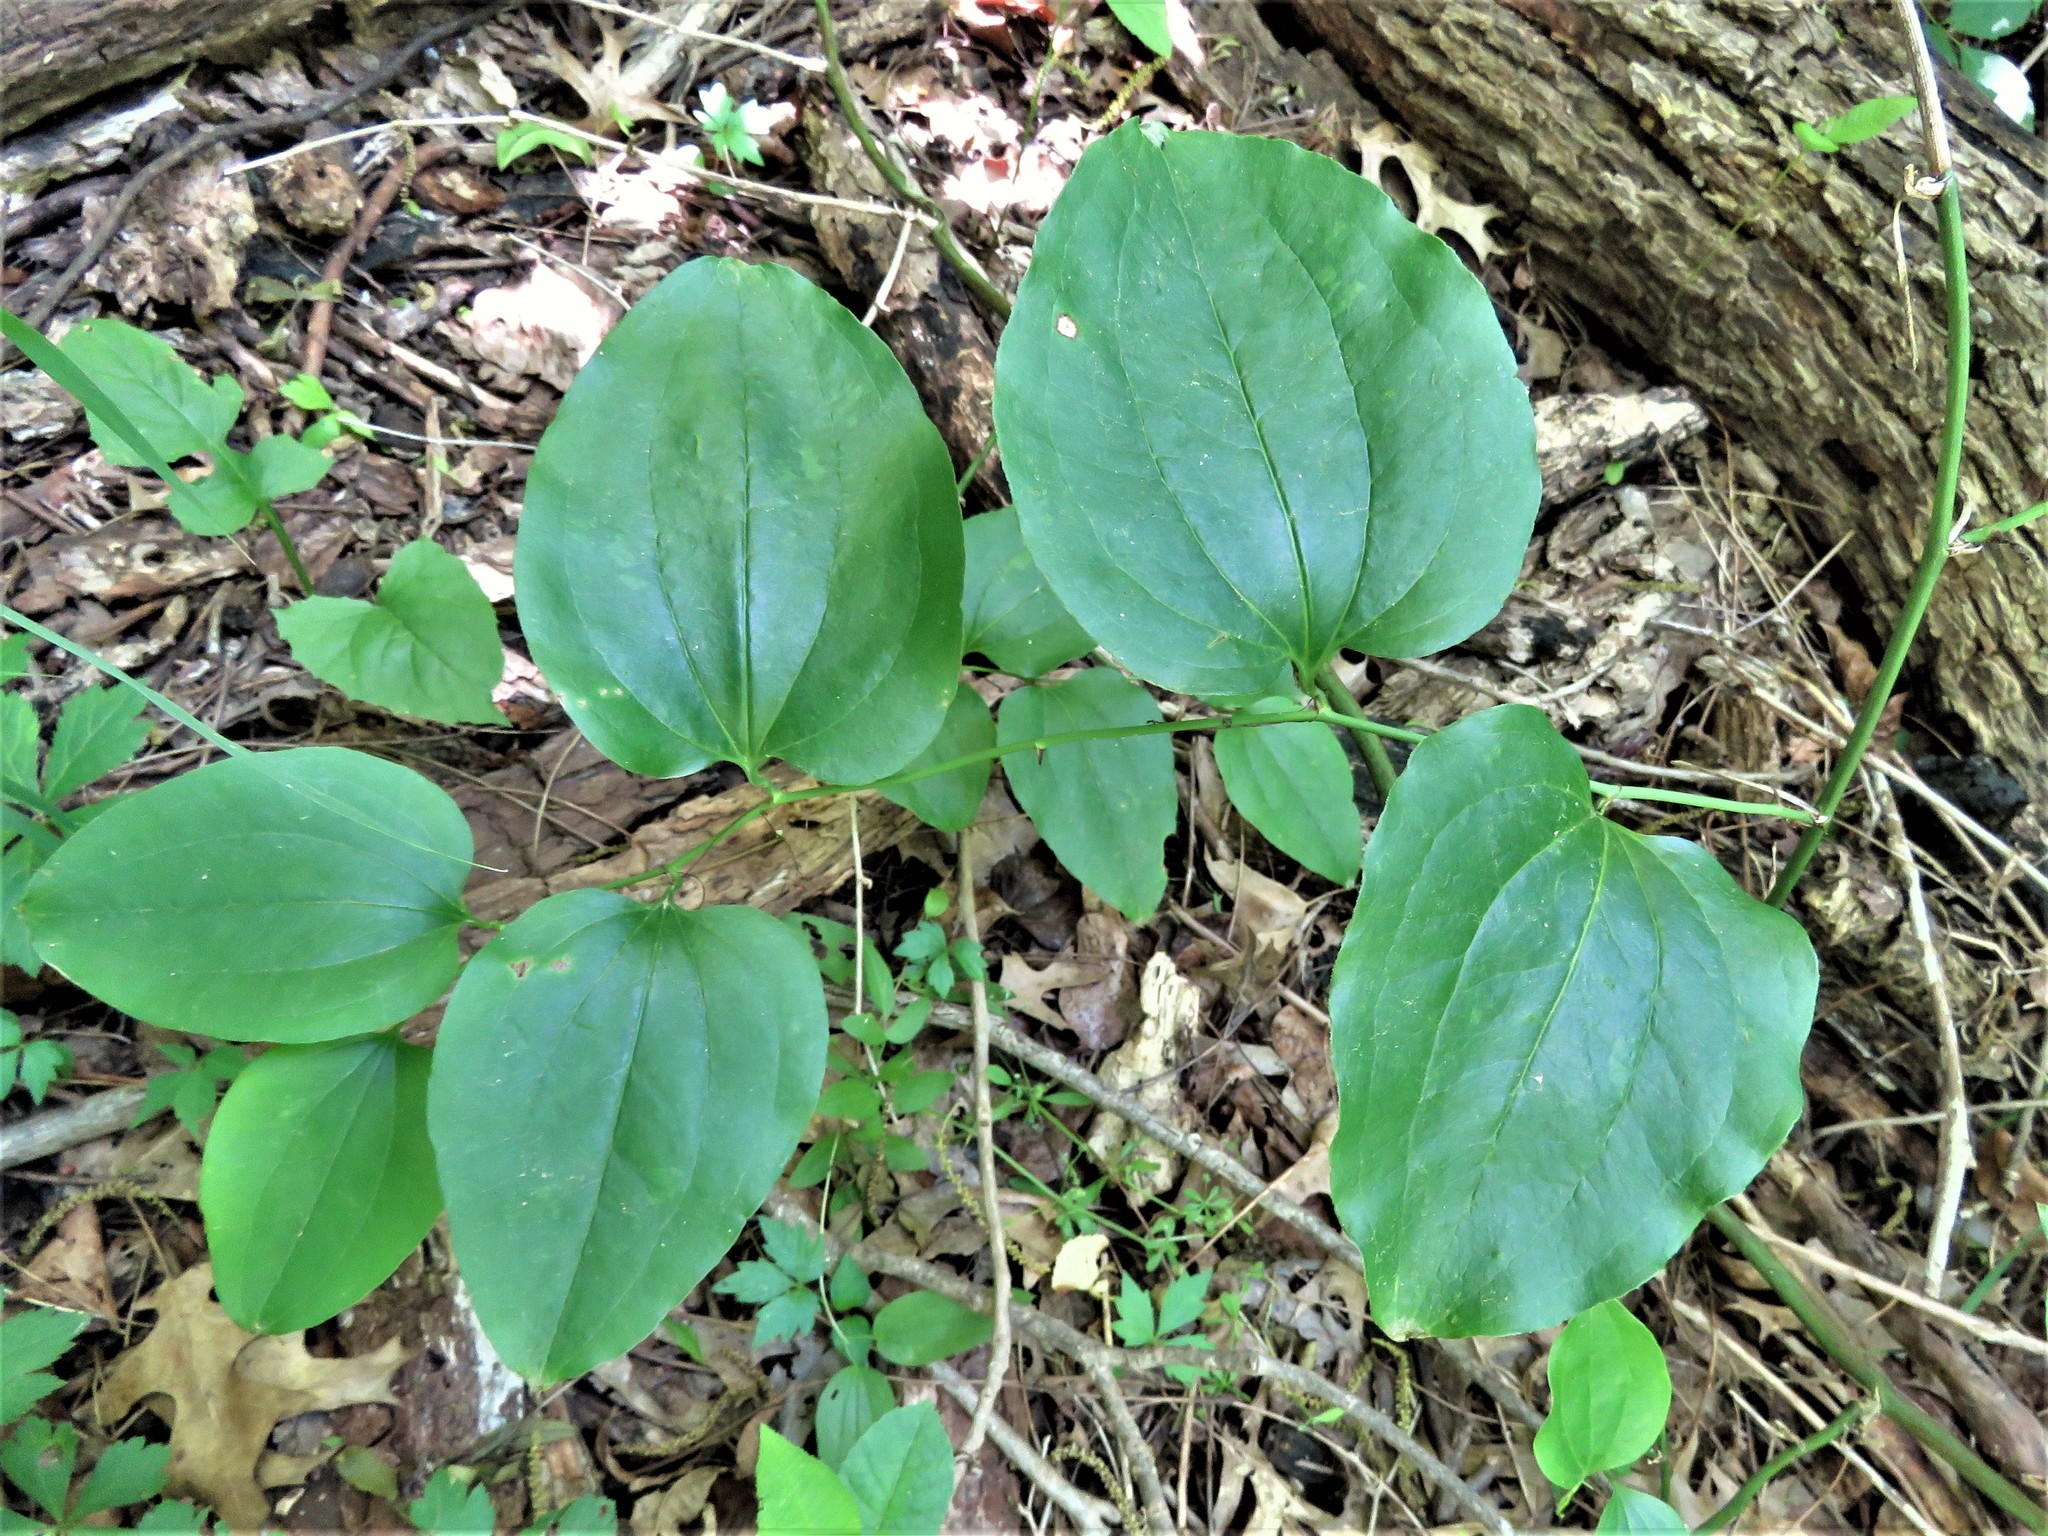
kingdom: Plantae
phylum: Tracheophyta
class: Liliopsida
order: Liliales
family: Smilacaceae
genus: Smilax
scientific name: Smilax tamnoides
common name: Hellfetter
